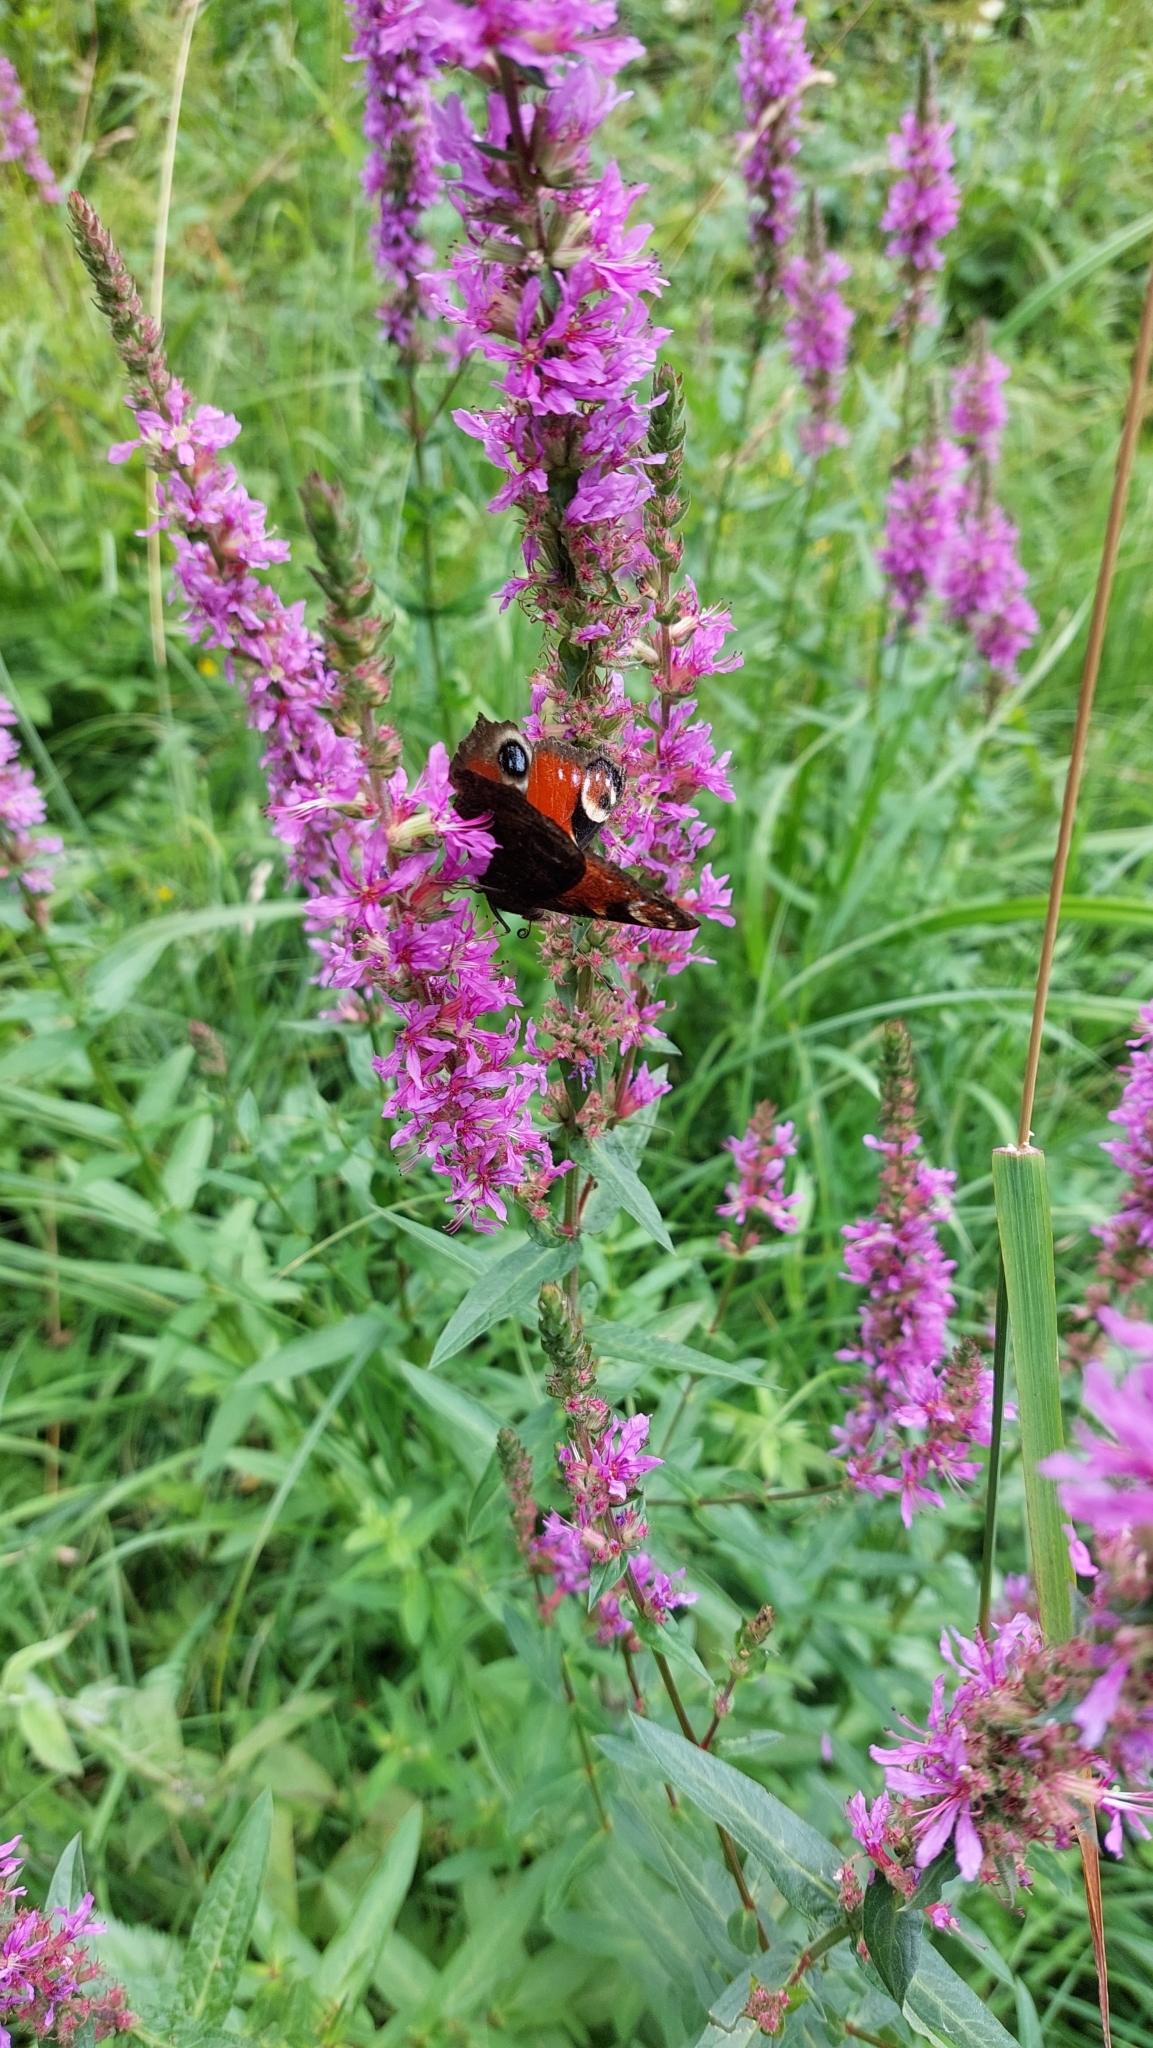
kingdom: Animalia
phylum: Arthropoda
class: Insecta
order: Lepidoptera
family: Nymphalidae
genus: Aglais
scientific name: Aglais io
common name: Peacock
